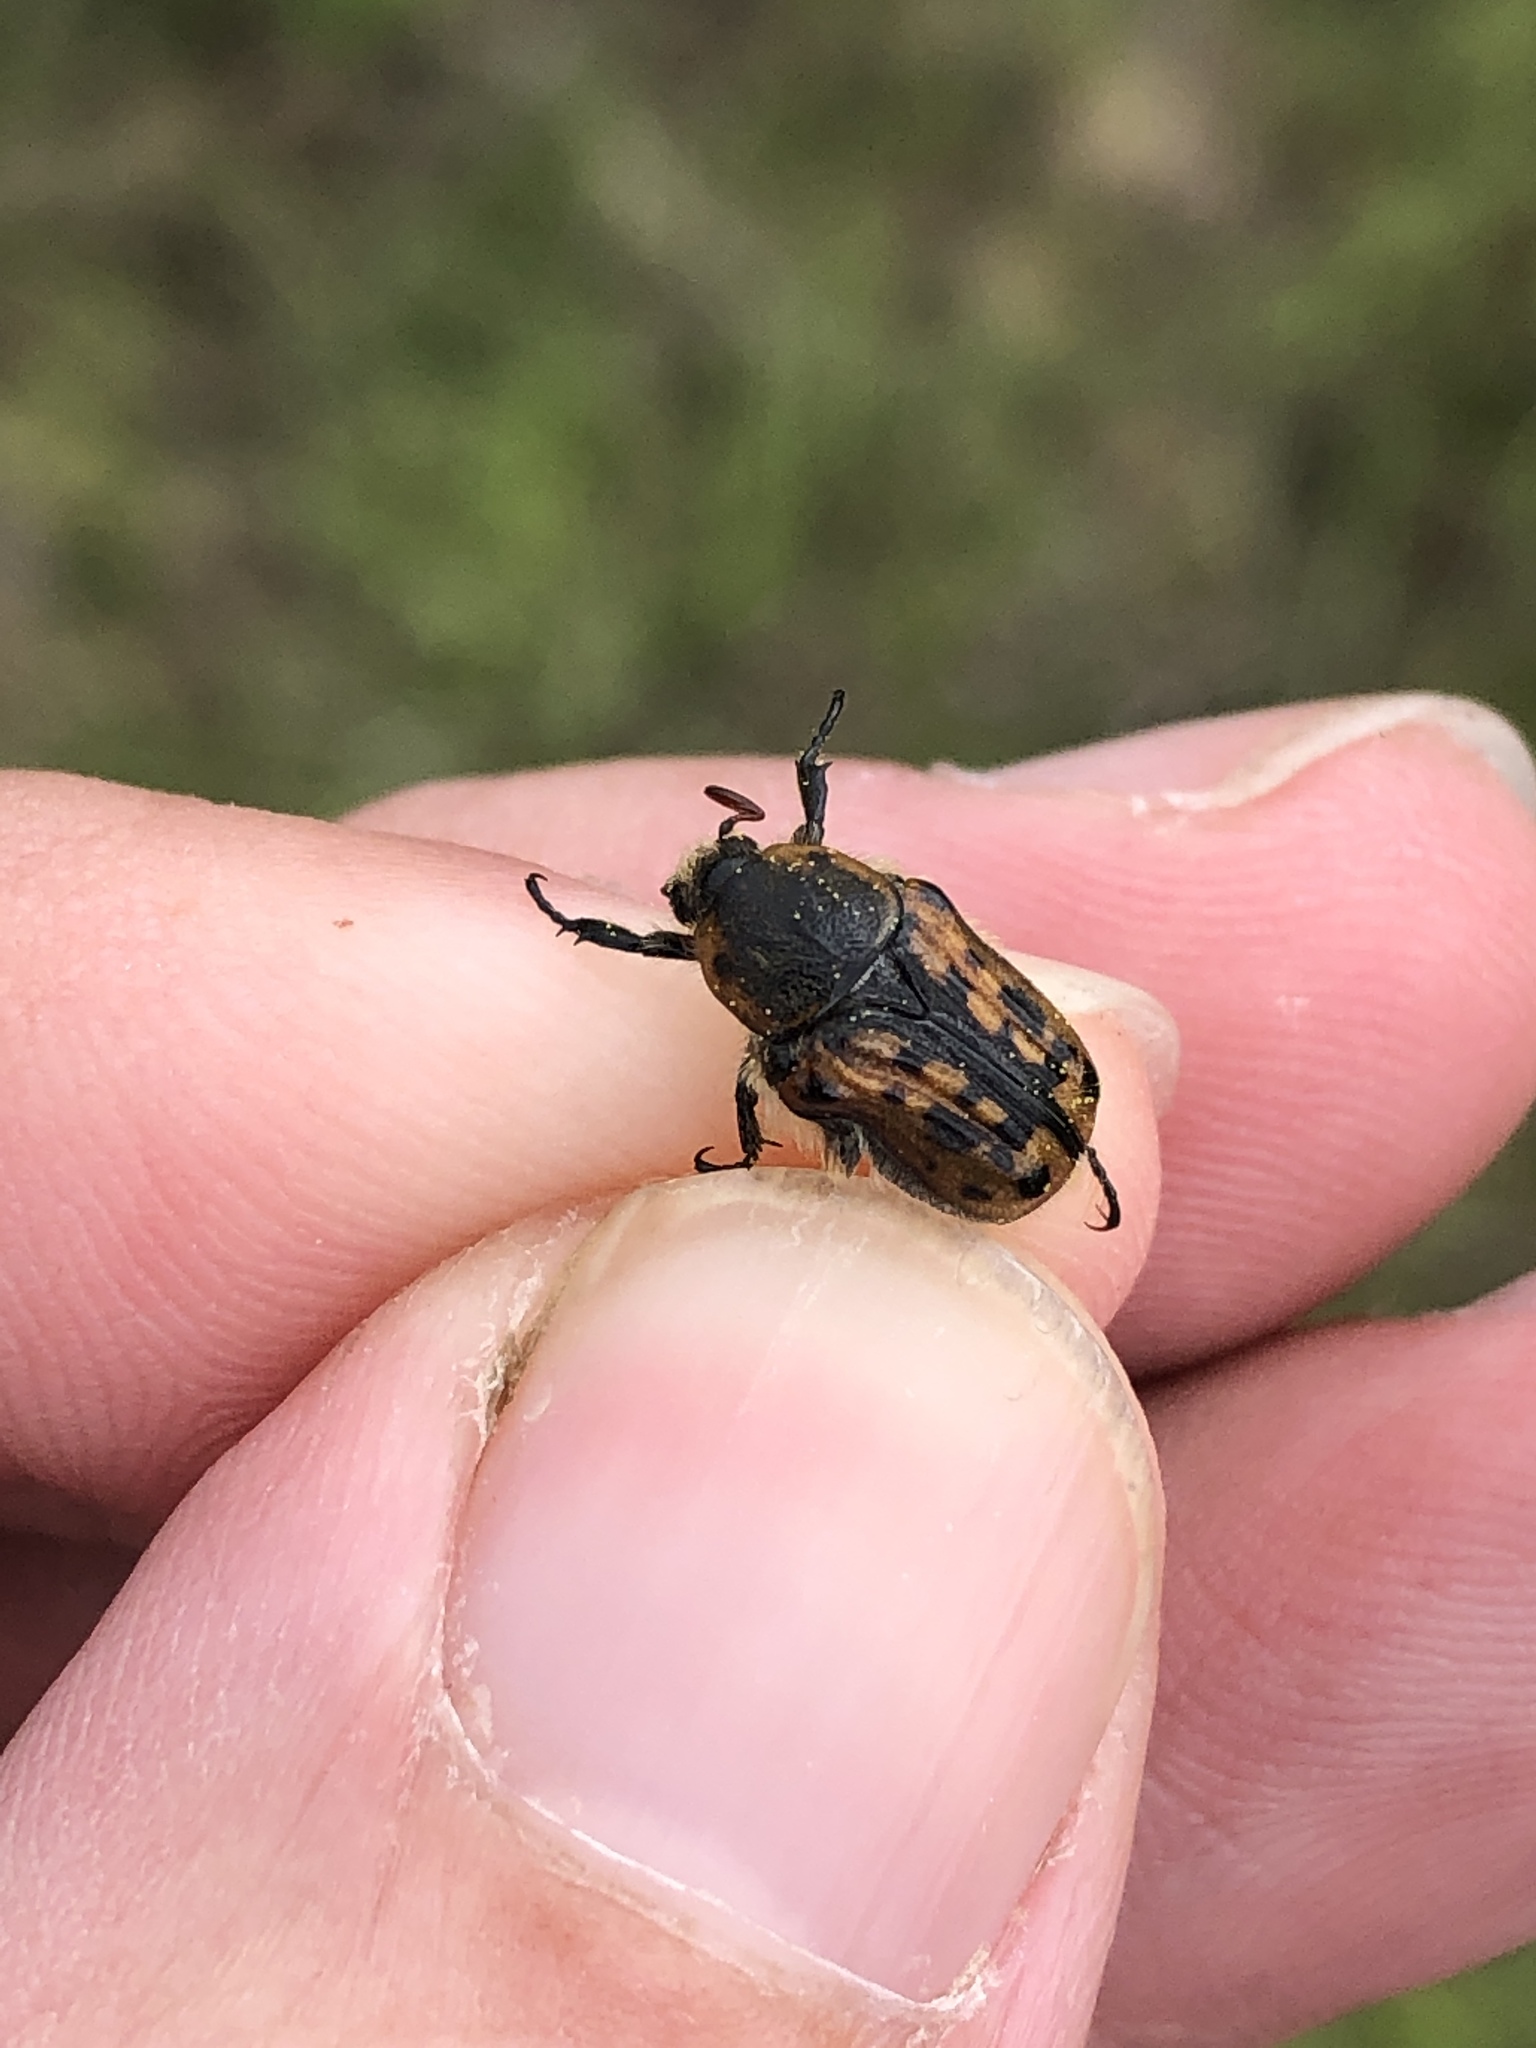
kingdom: Animalia
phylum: Arthropoda
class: Insecta
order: Coleoptera
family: Scarabaeidae
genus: Euphoria
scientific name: Euphoria kernii
